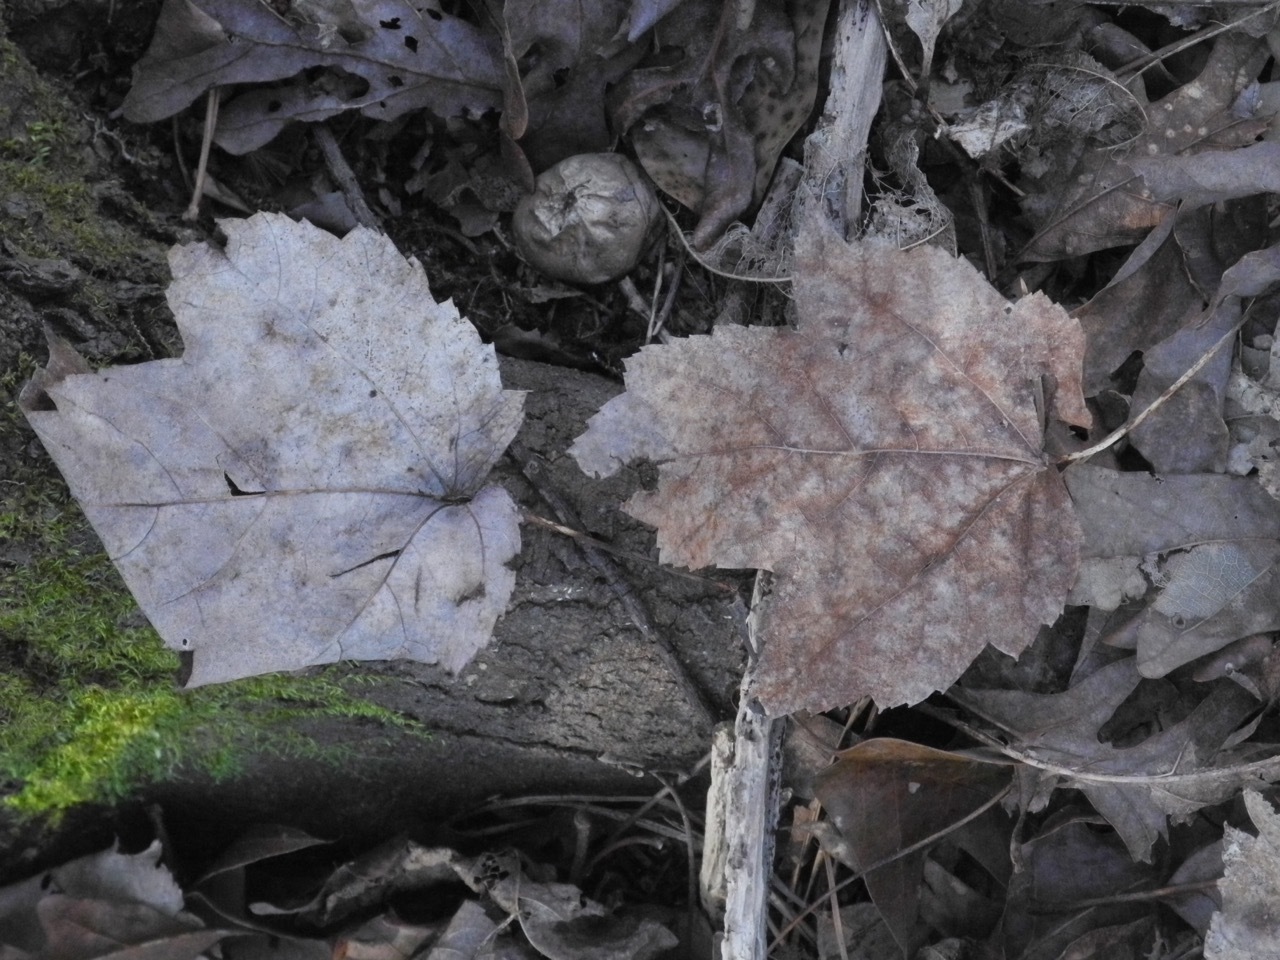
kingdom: Plantae
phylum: Tracheophyta
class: Magnoliopsida
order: Sapindales
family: Sapindaceae
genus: Acer
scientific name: Acer rubrum
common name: Red maple
